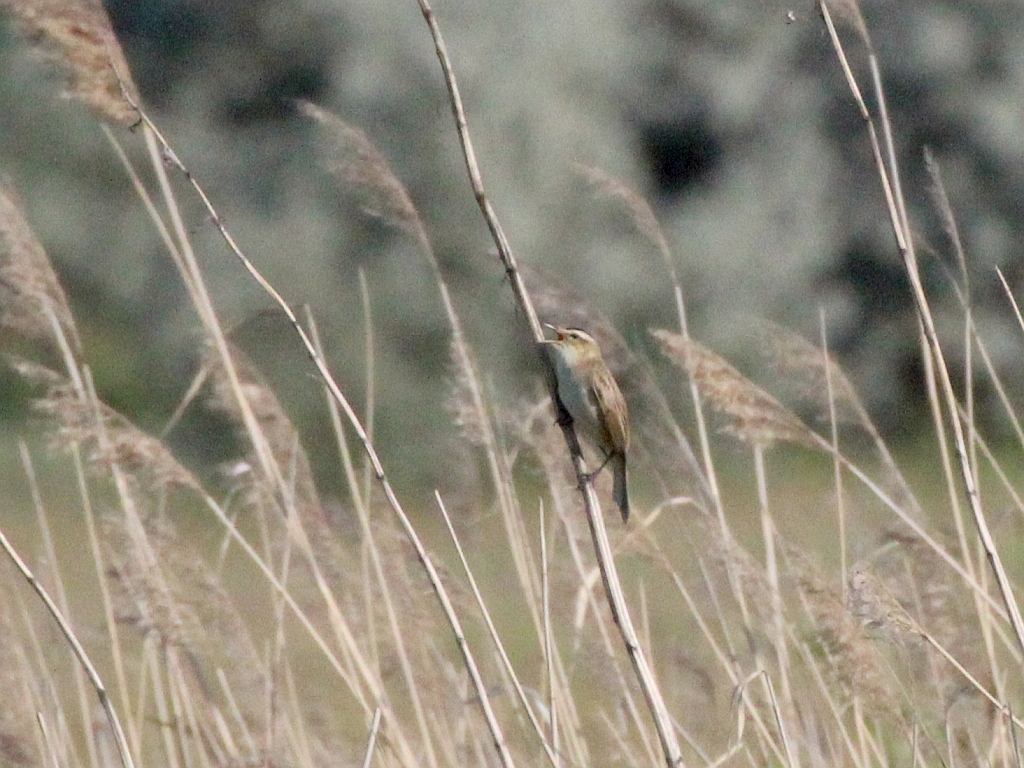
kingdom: Animalia
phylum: Chordata
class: Aves
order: Passeriformes
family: Acrocephalidae
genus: Acrocephalus
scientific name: Acrocephalus schoenobaenus
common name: Sedge warbler
